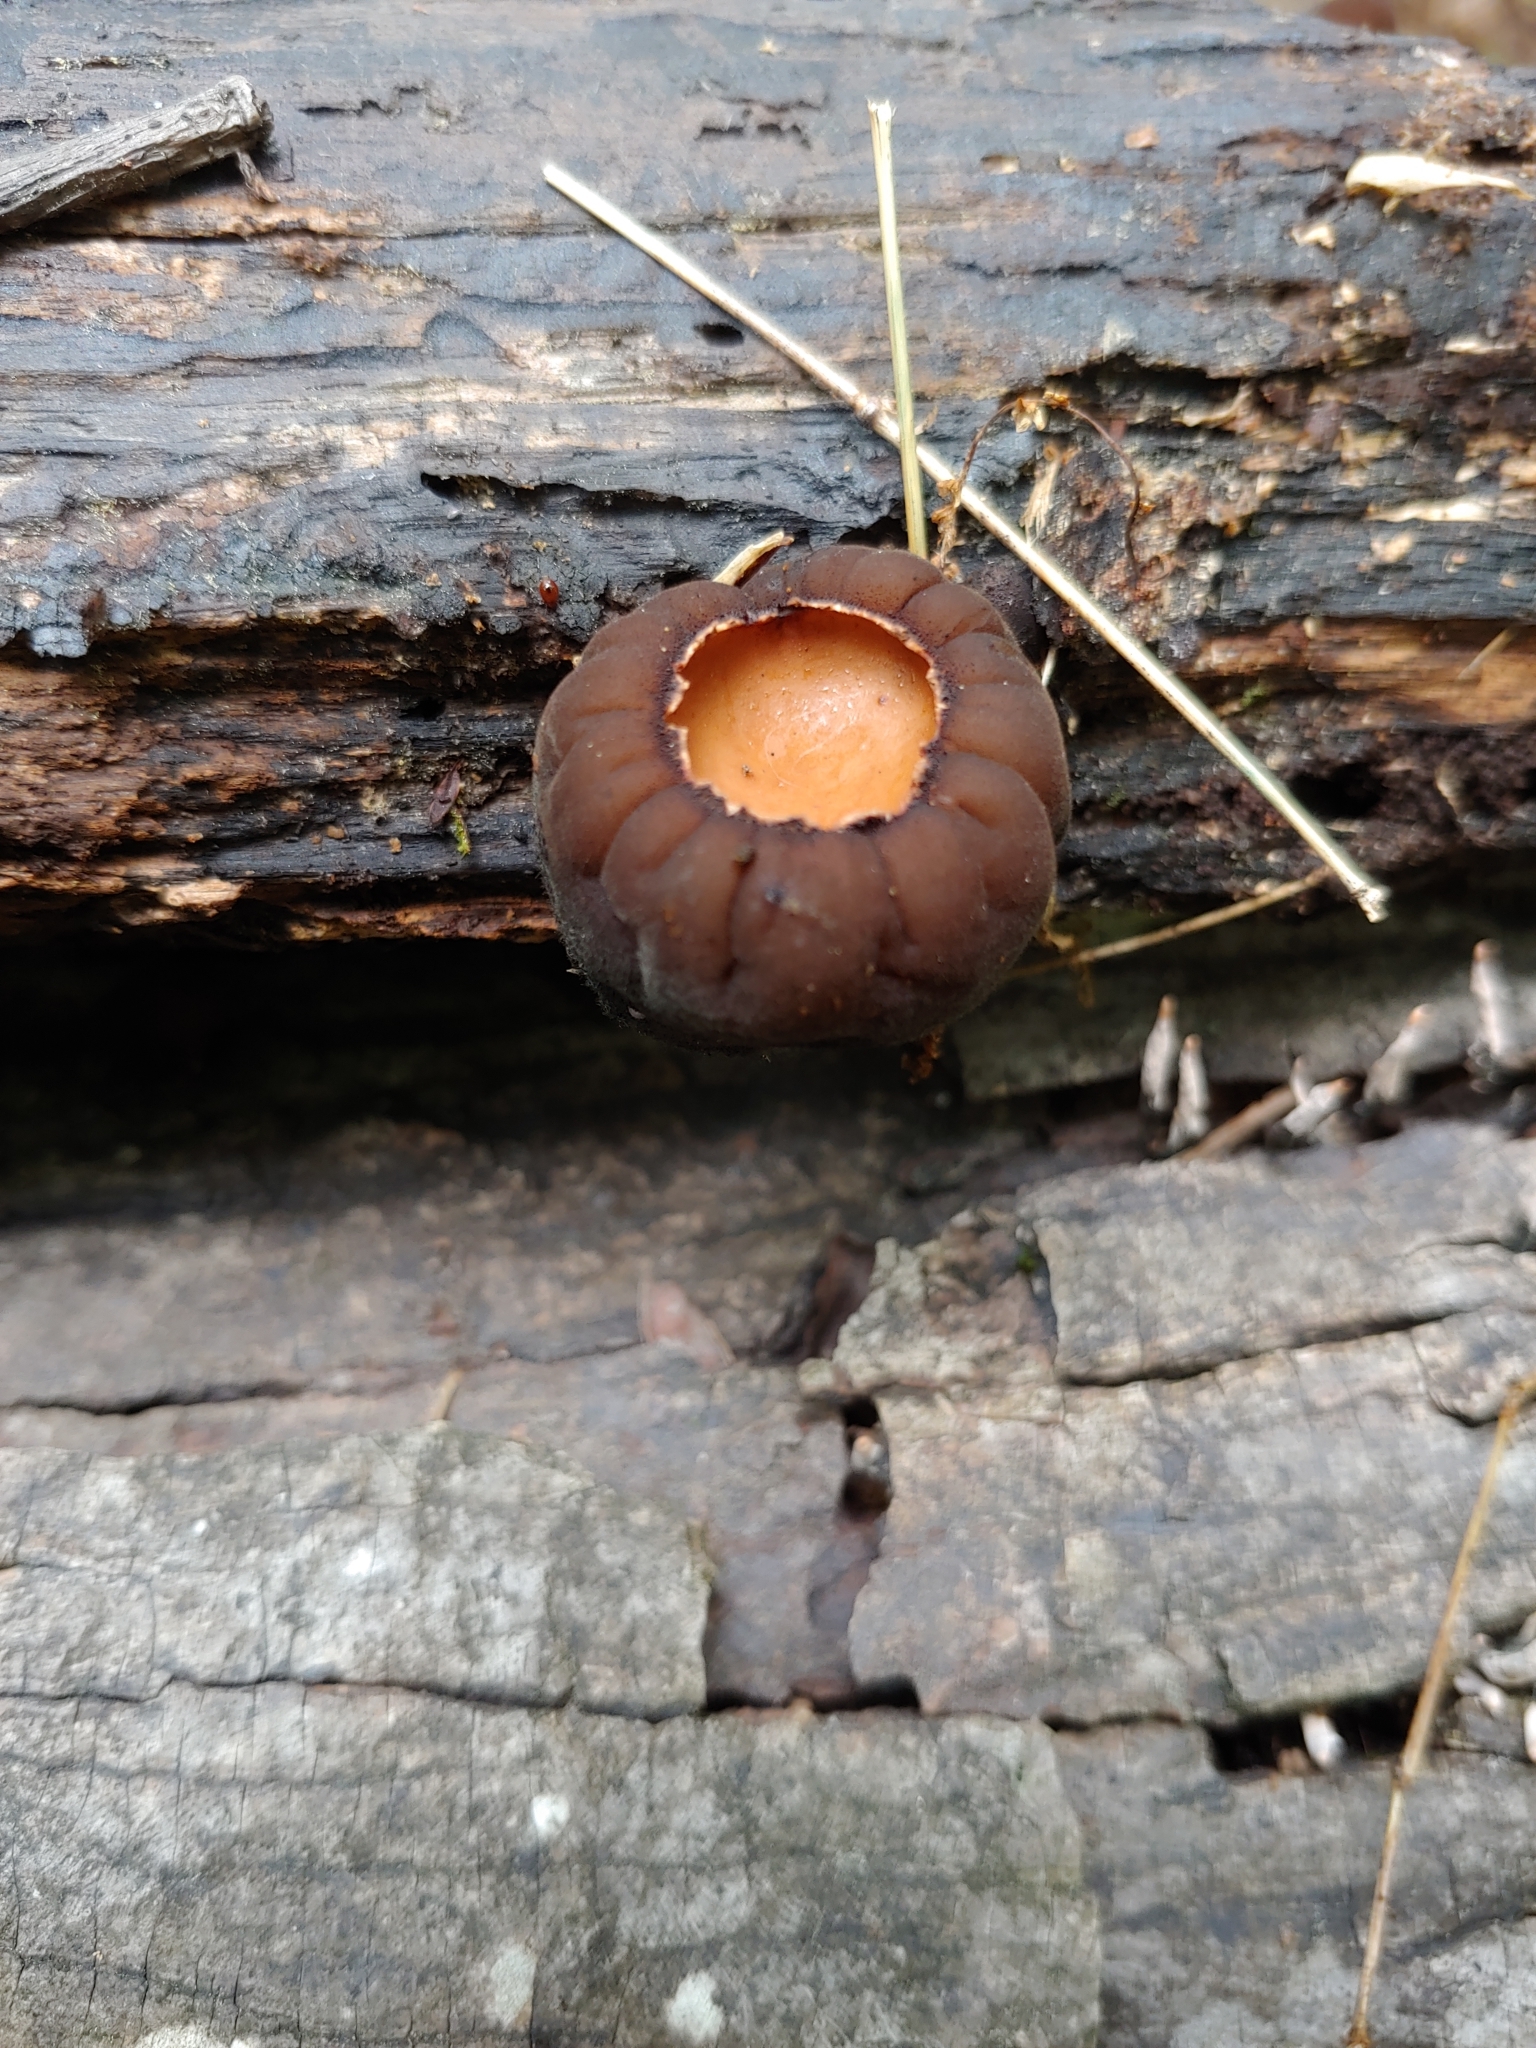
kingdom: Fungi
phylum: Ascomycota
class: Pezizomycetes
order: Pezizales
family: Sarcosomataceae
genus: Galiella
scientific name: Galiella rufa
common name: Hairy rubber cup
